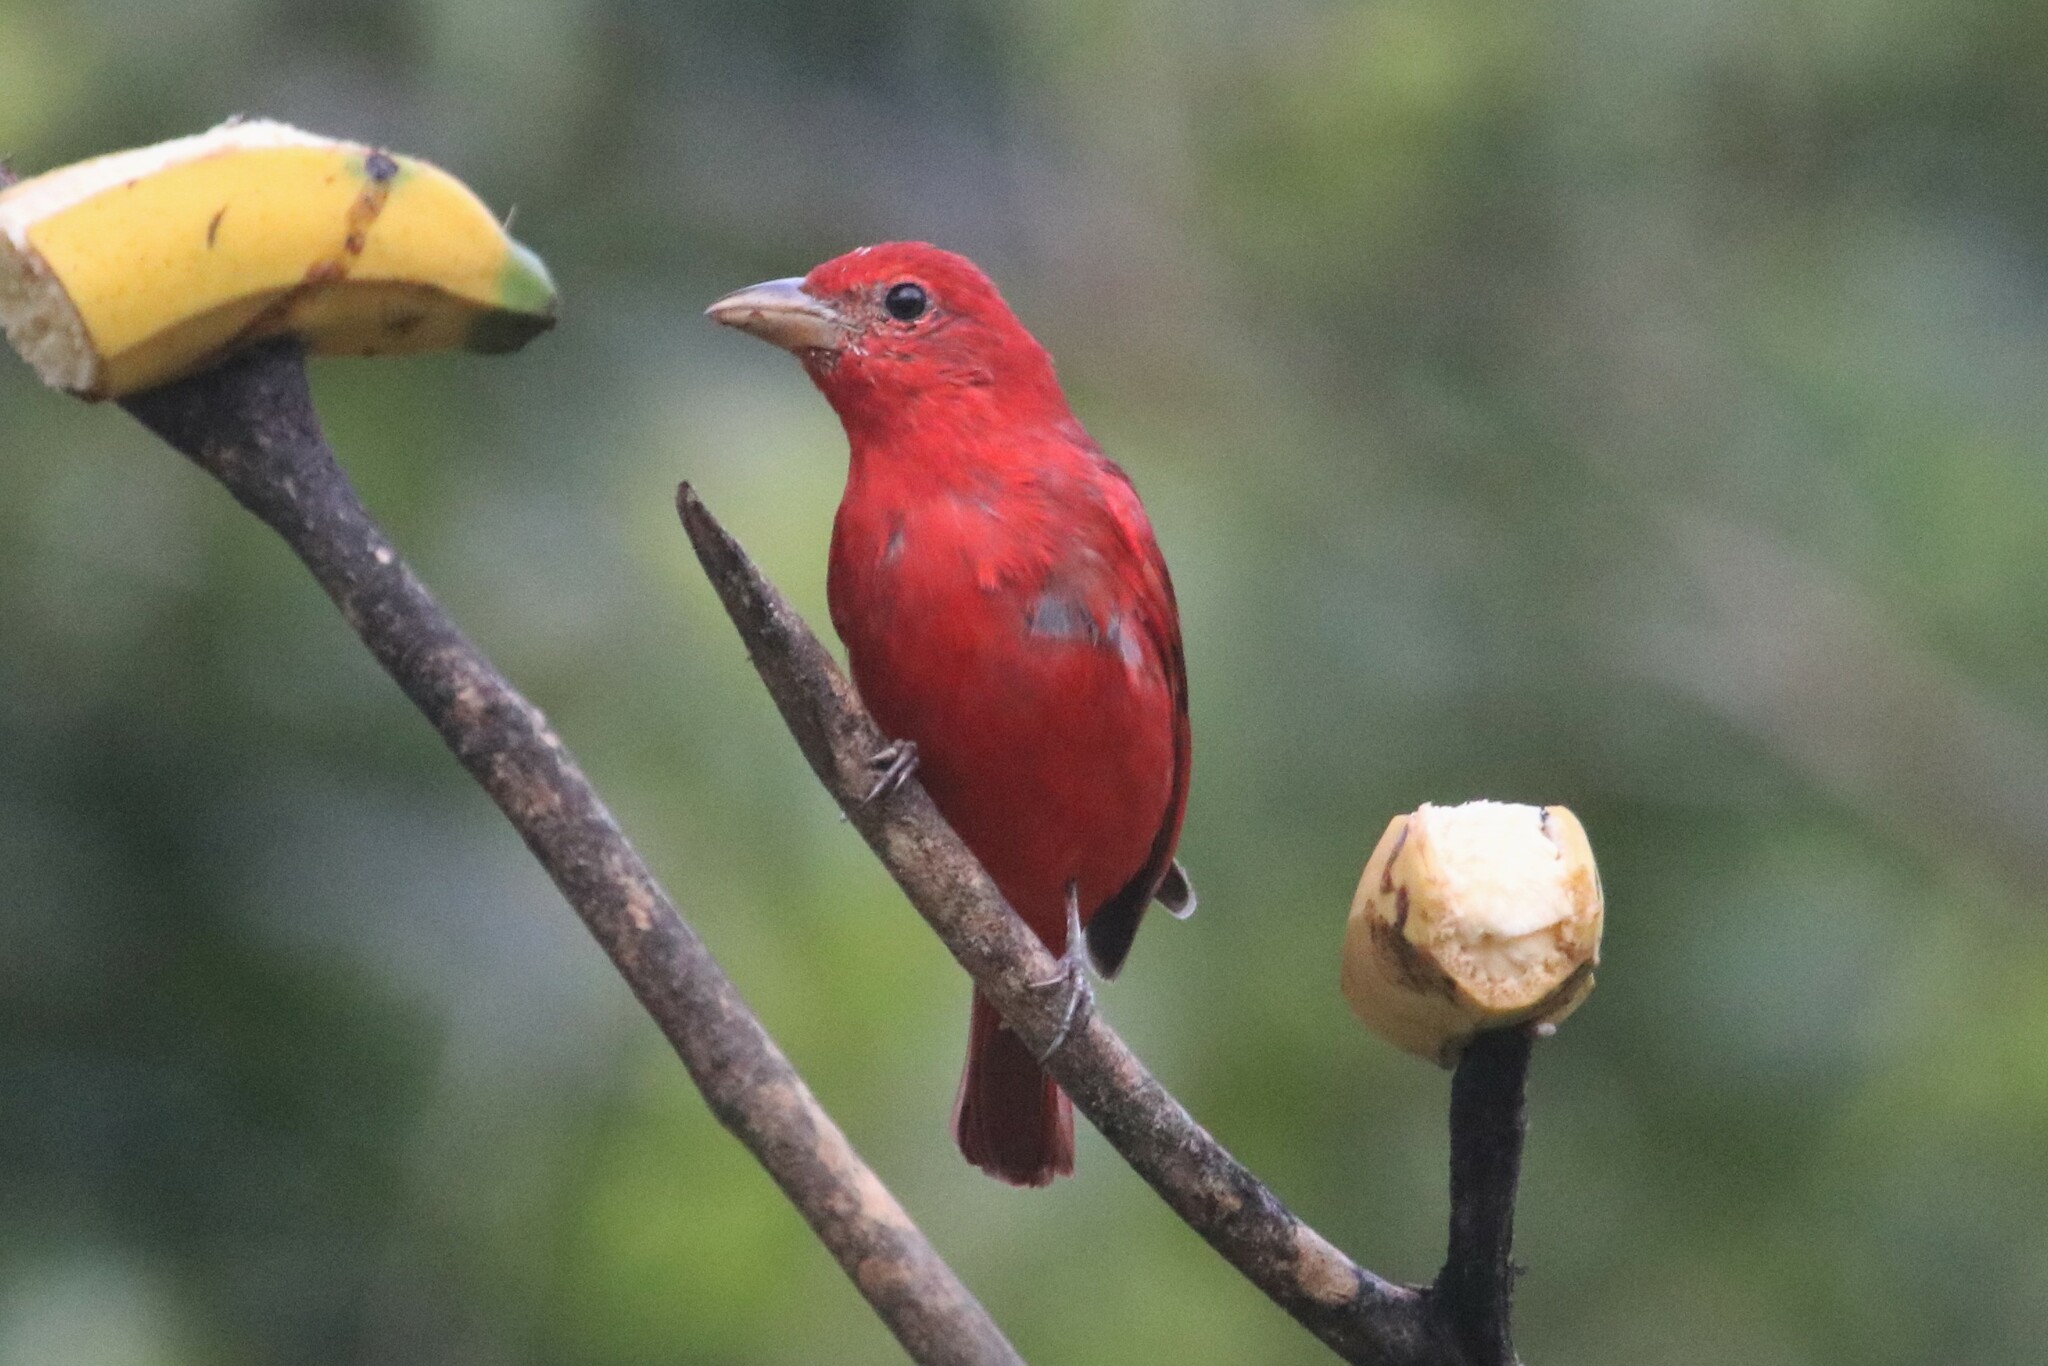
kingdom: Animalia
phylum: Chordata
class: Aves
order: Passeriformes
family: Cardinalidae
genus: Piranga
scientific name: Piranga rubra
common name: Summer tanager
